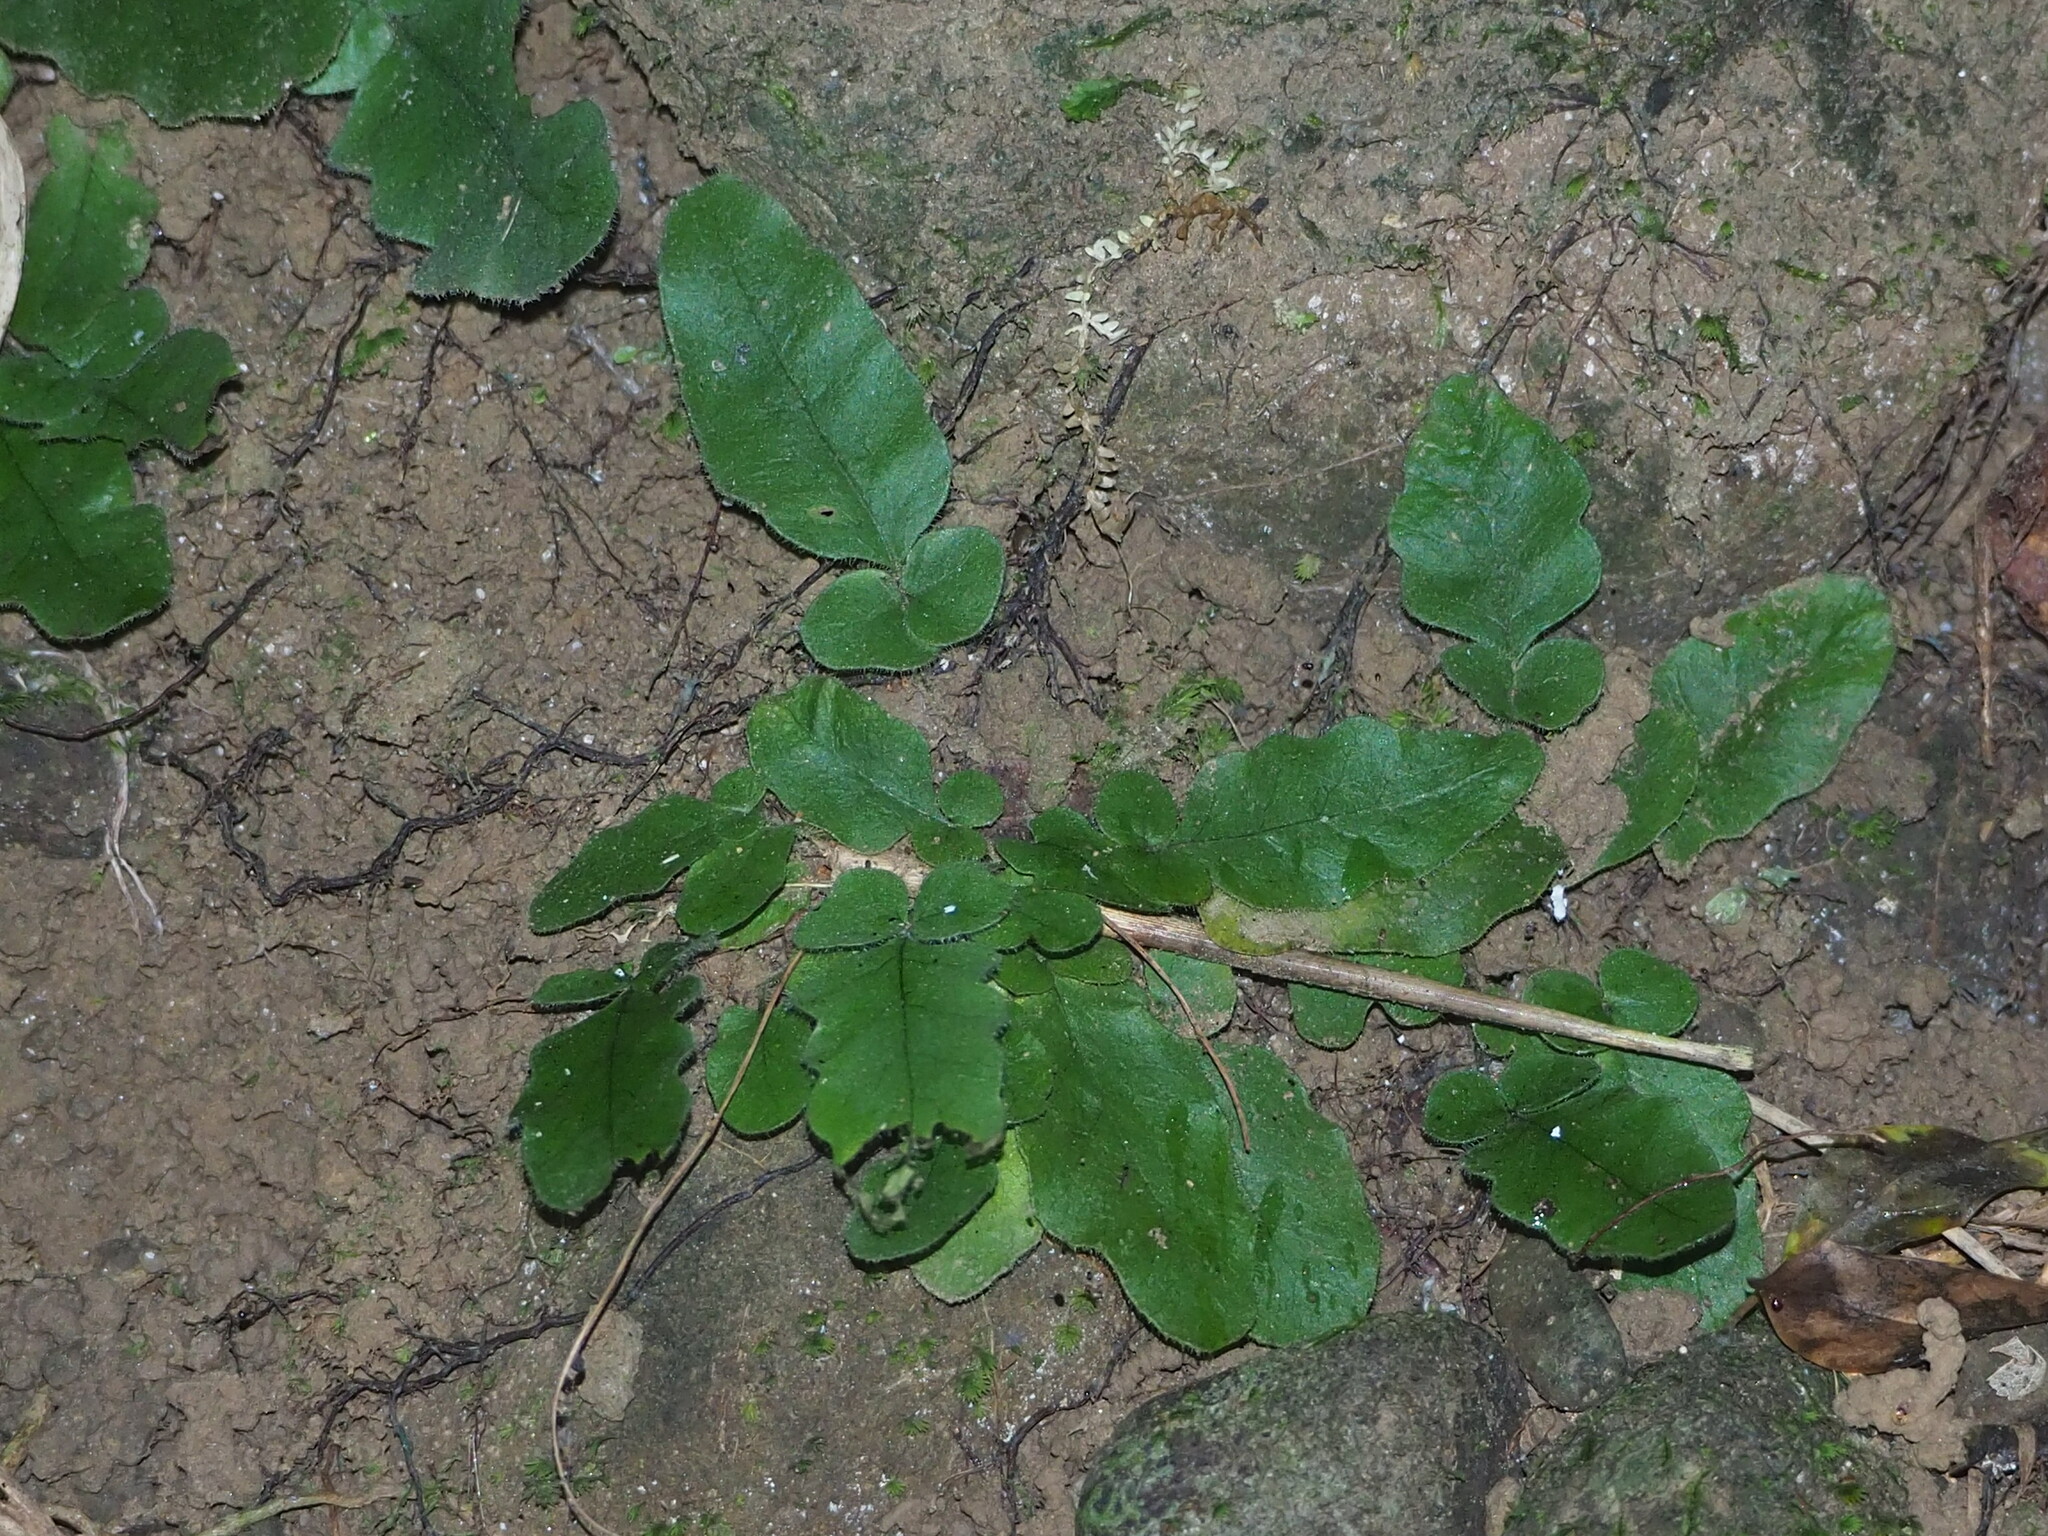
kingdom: Plantae
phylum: Tracheophyta
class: Polypodiopsida
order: Polypodiales
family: Tectariaceae
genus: Tectaria
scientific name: Tectaria zeilanica
